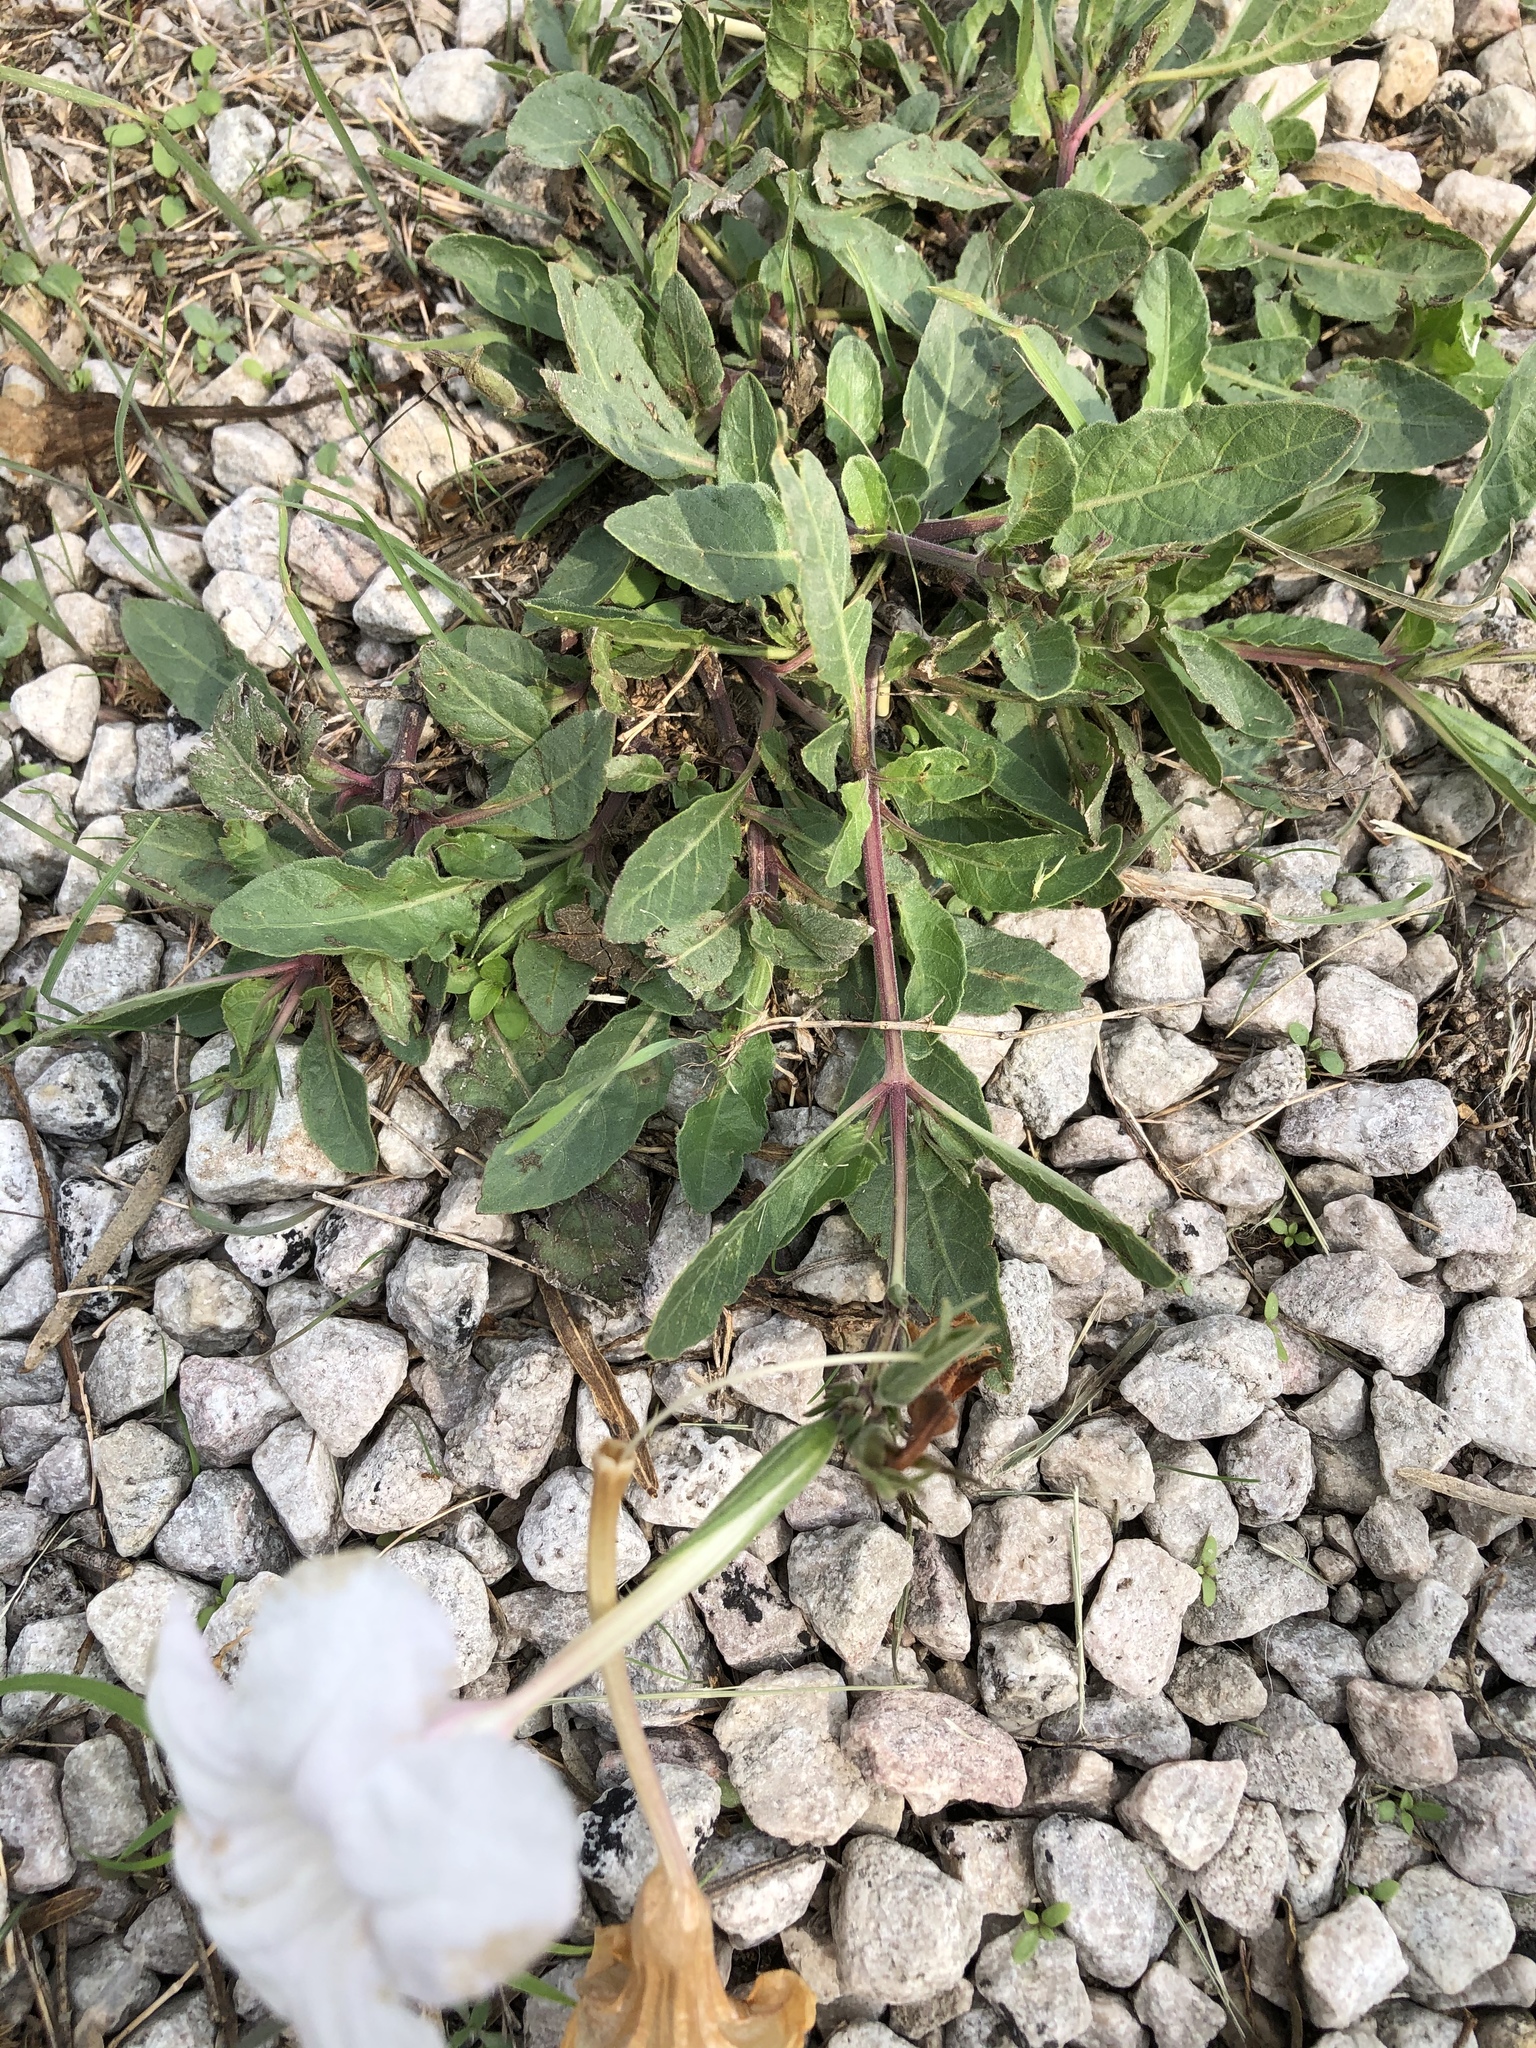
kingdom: Plantae
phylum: Tracheophyta
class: Magnoliopsida
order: Lamiales
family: Acanthaceae
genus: Ruellia
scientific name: Ruellia metziae
